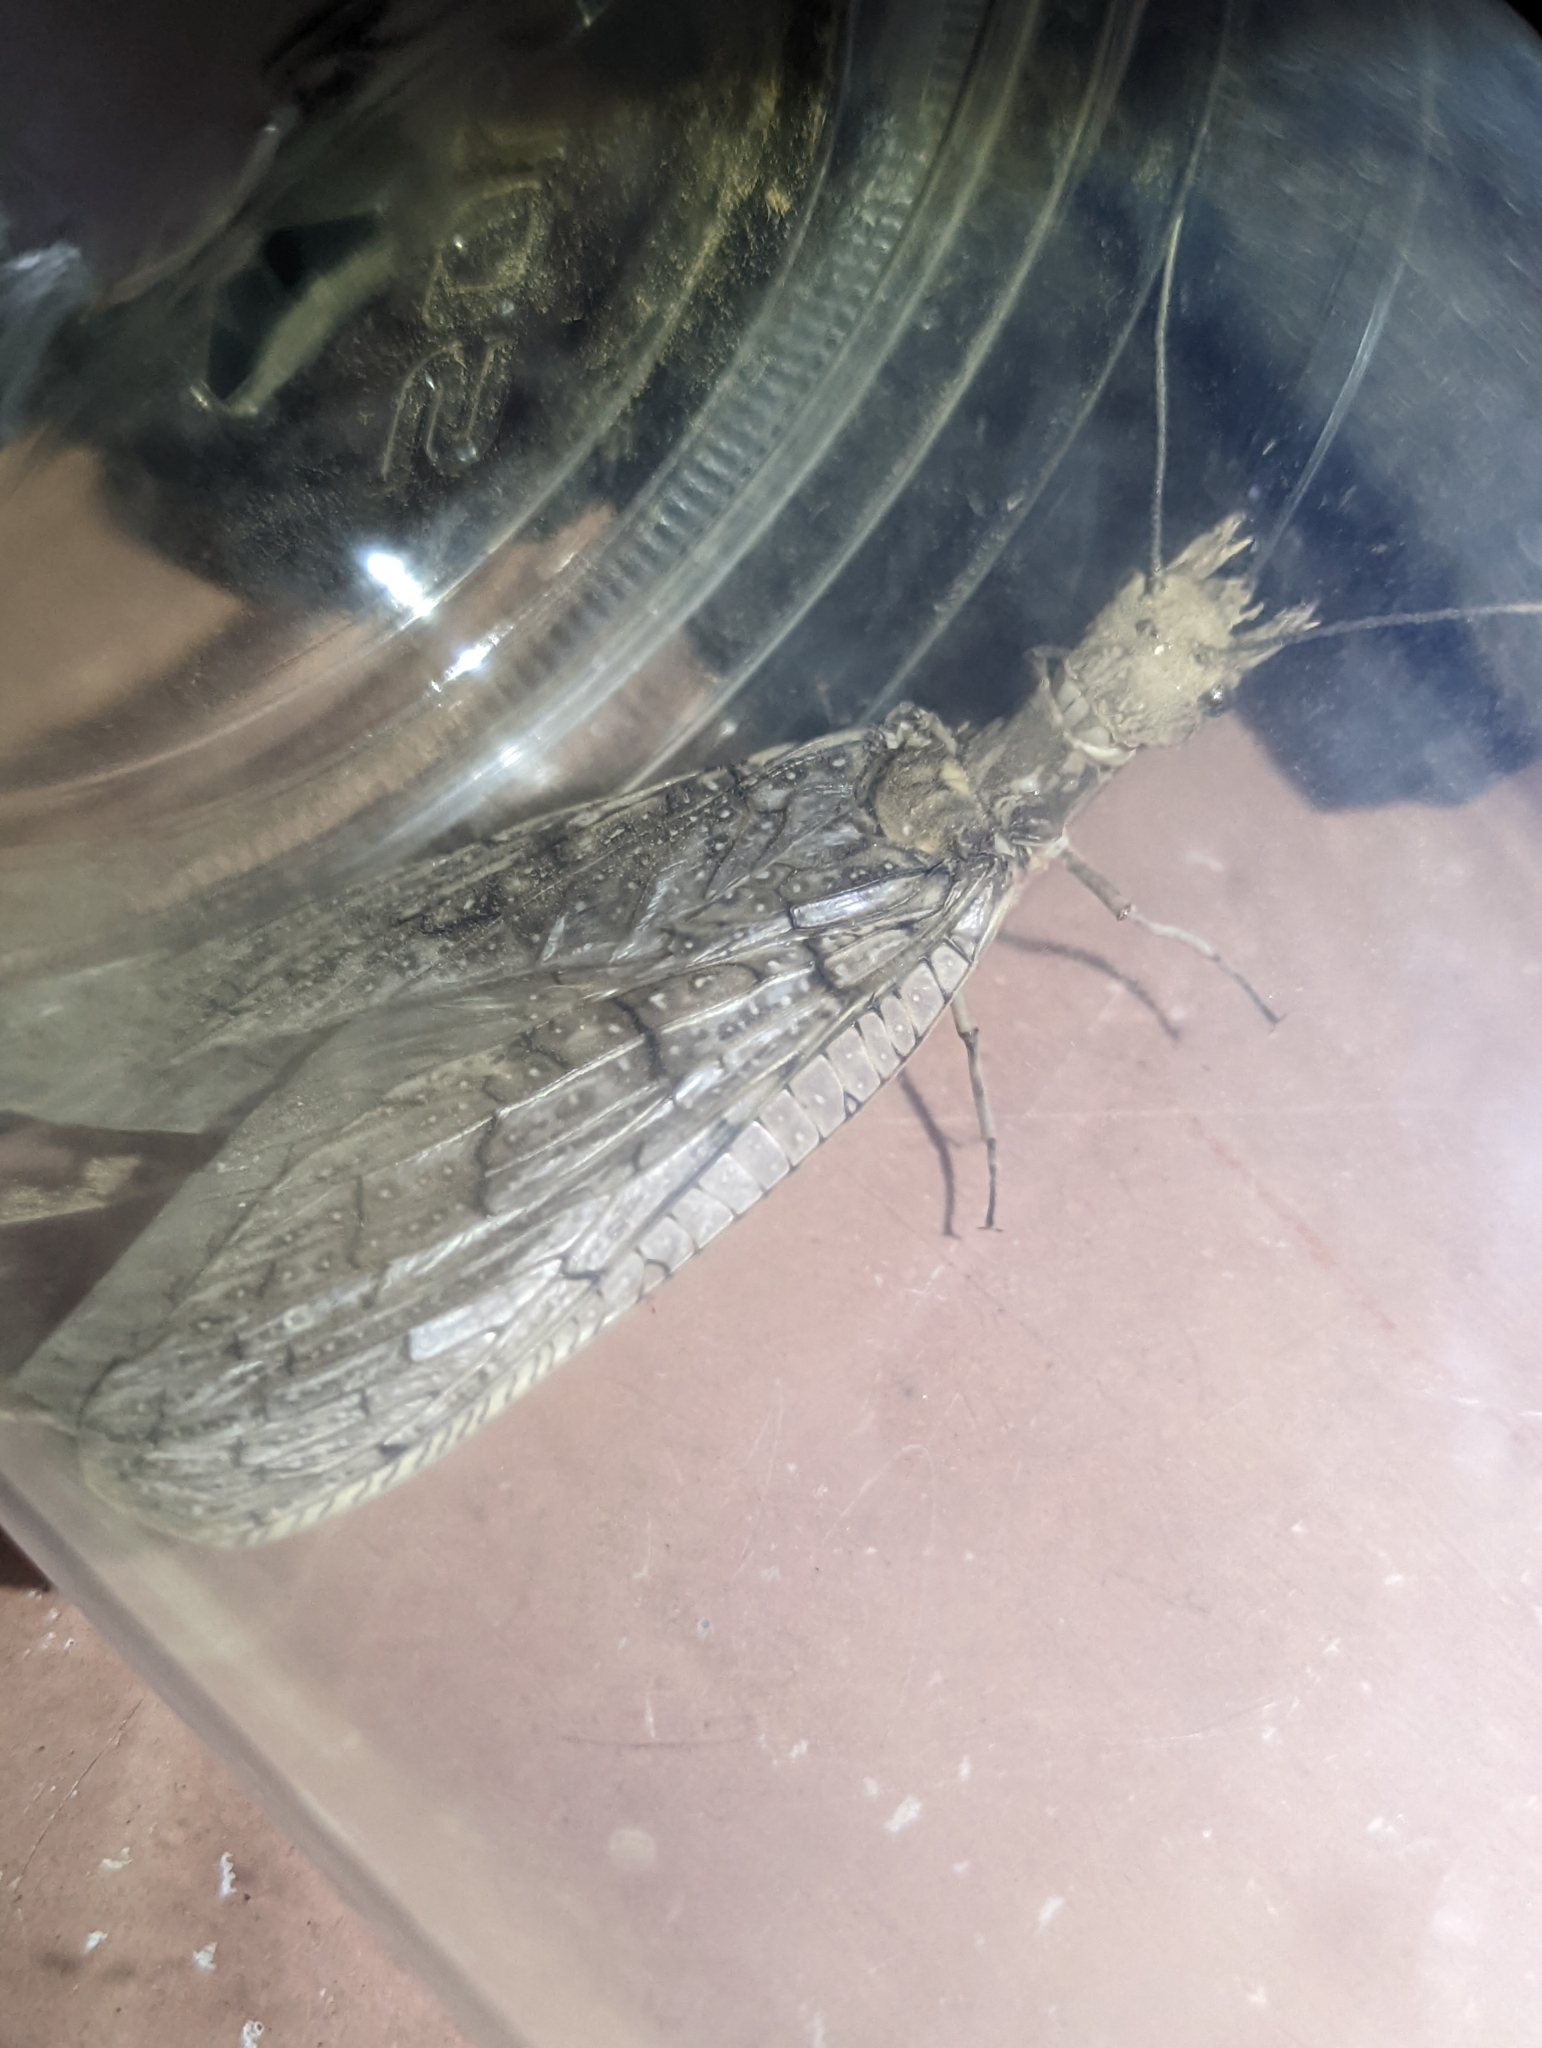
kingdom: Animalia
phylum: Arthropoda
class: Insecta
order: Megaloptera
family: Corydalidae
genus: Corydalus
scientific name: Corydalus texanus
